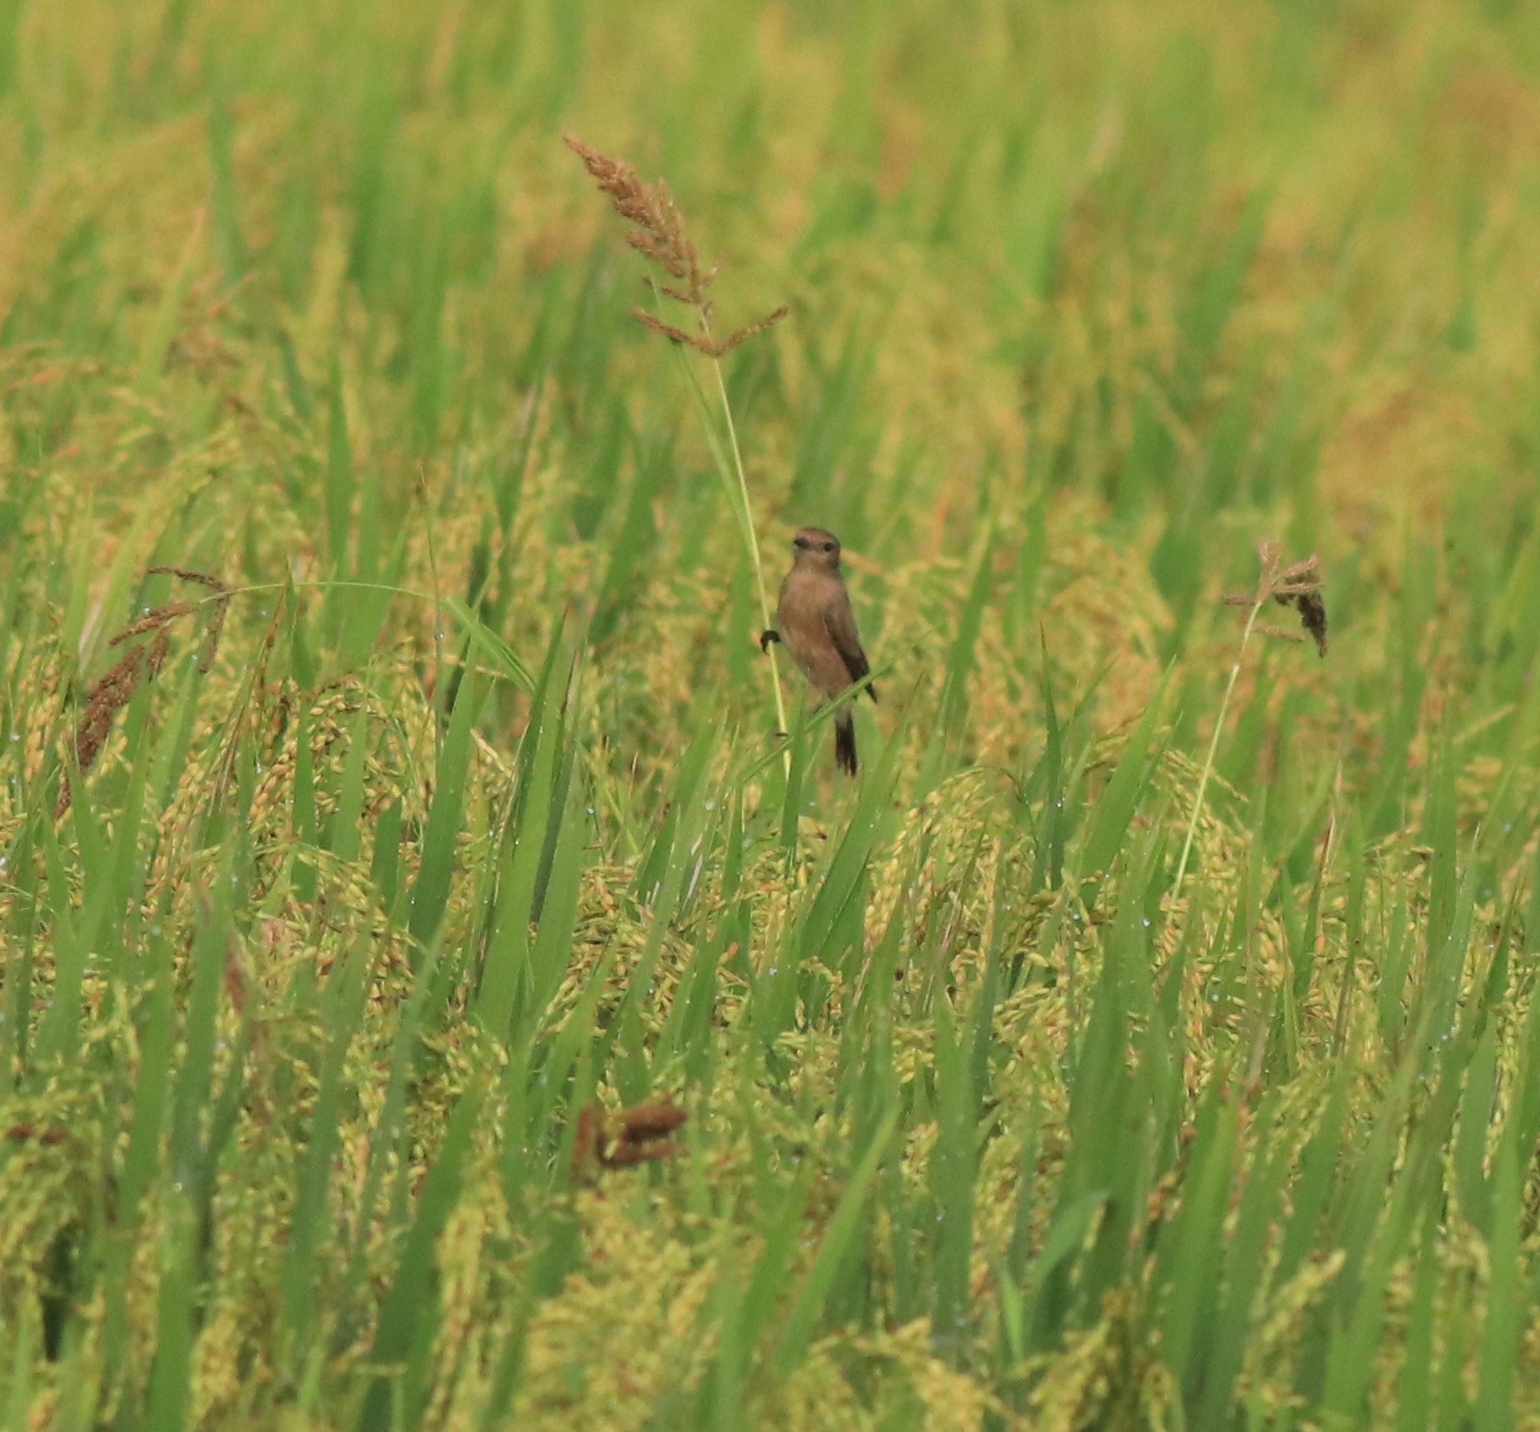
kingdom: Animalia
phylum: Chordata
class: Aves
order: Passeriformes
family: Muscicapidae
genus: Saxicola
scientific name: Saxicola caprata
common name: Pied bush chat
